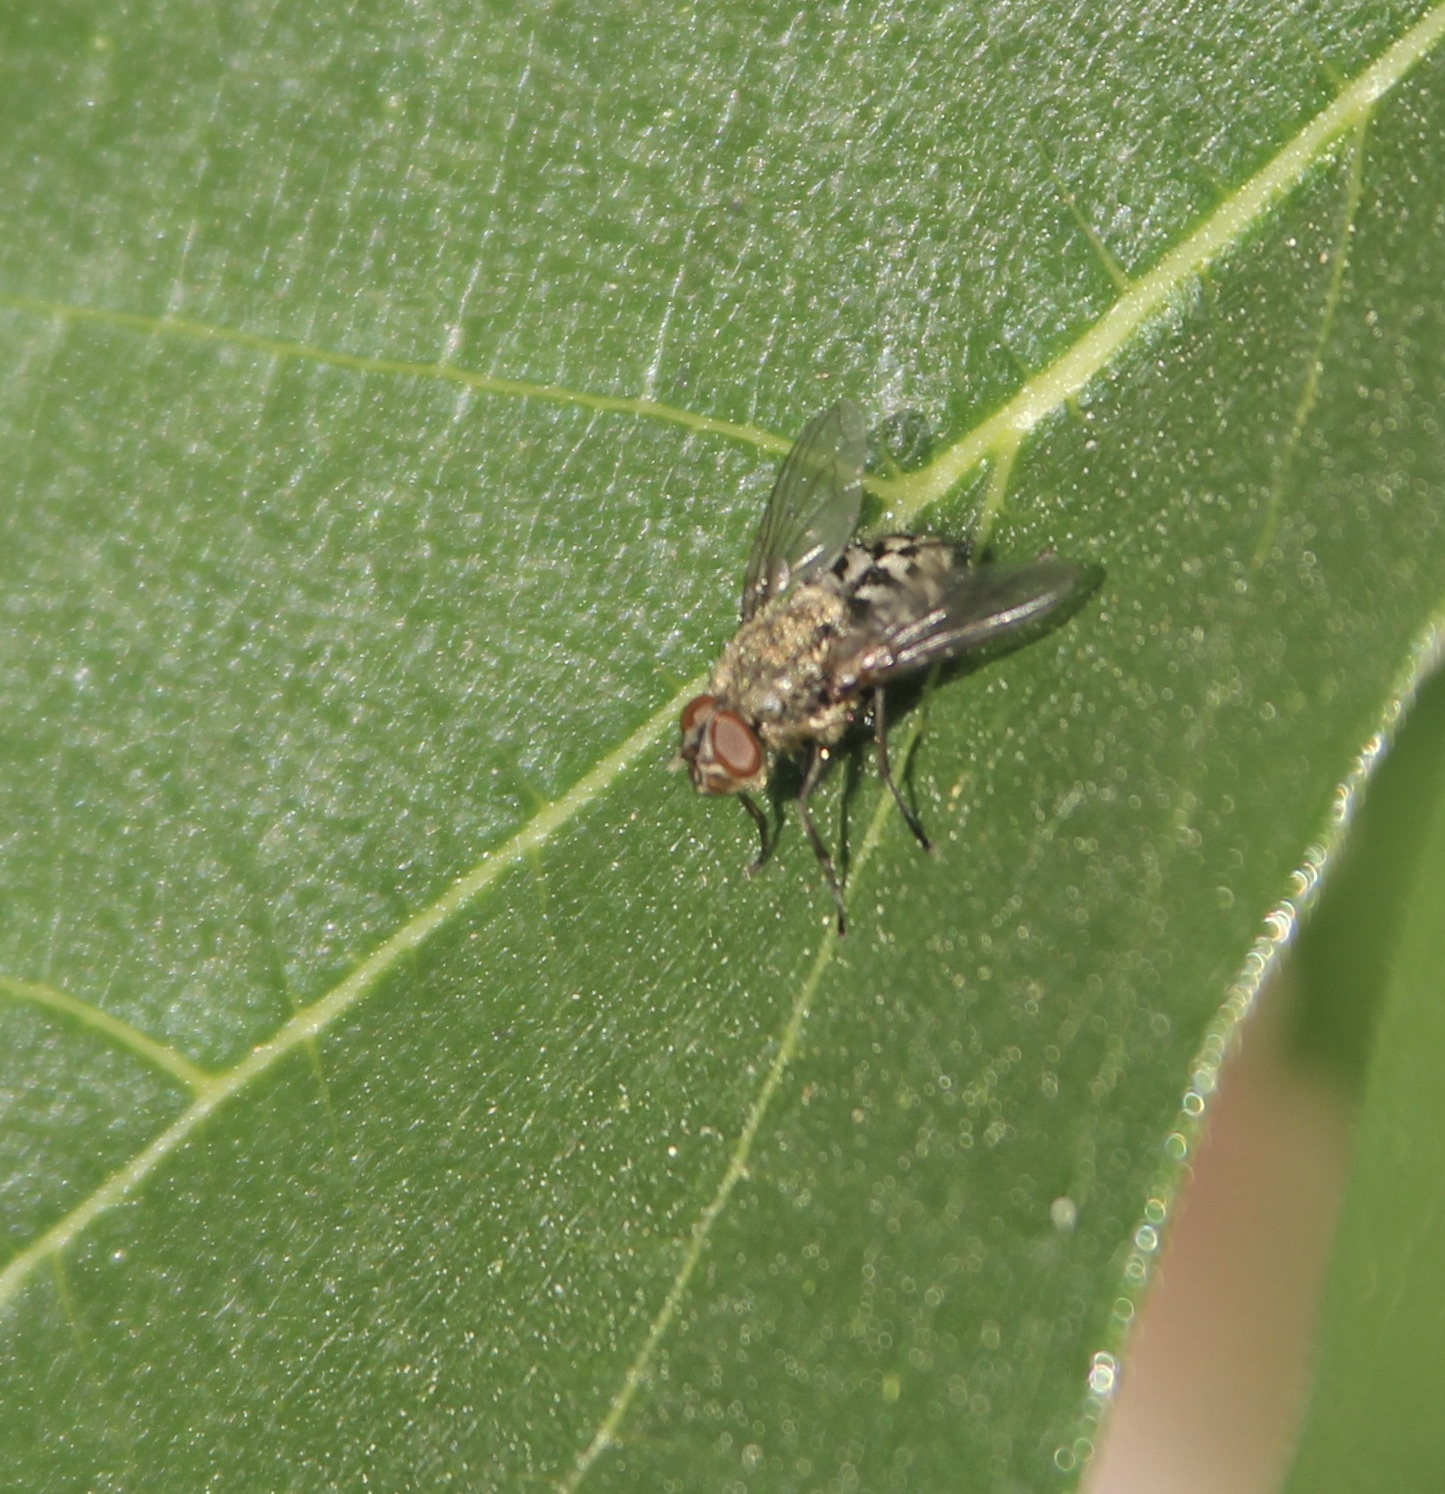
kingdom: Animalia
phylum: Arthropoda
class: Insecta
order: Diptera
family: Polleniidae
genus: Pollenia
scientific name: Pollenia
